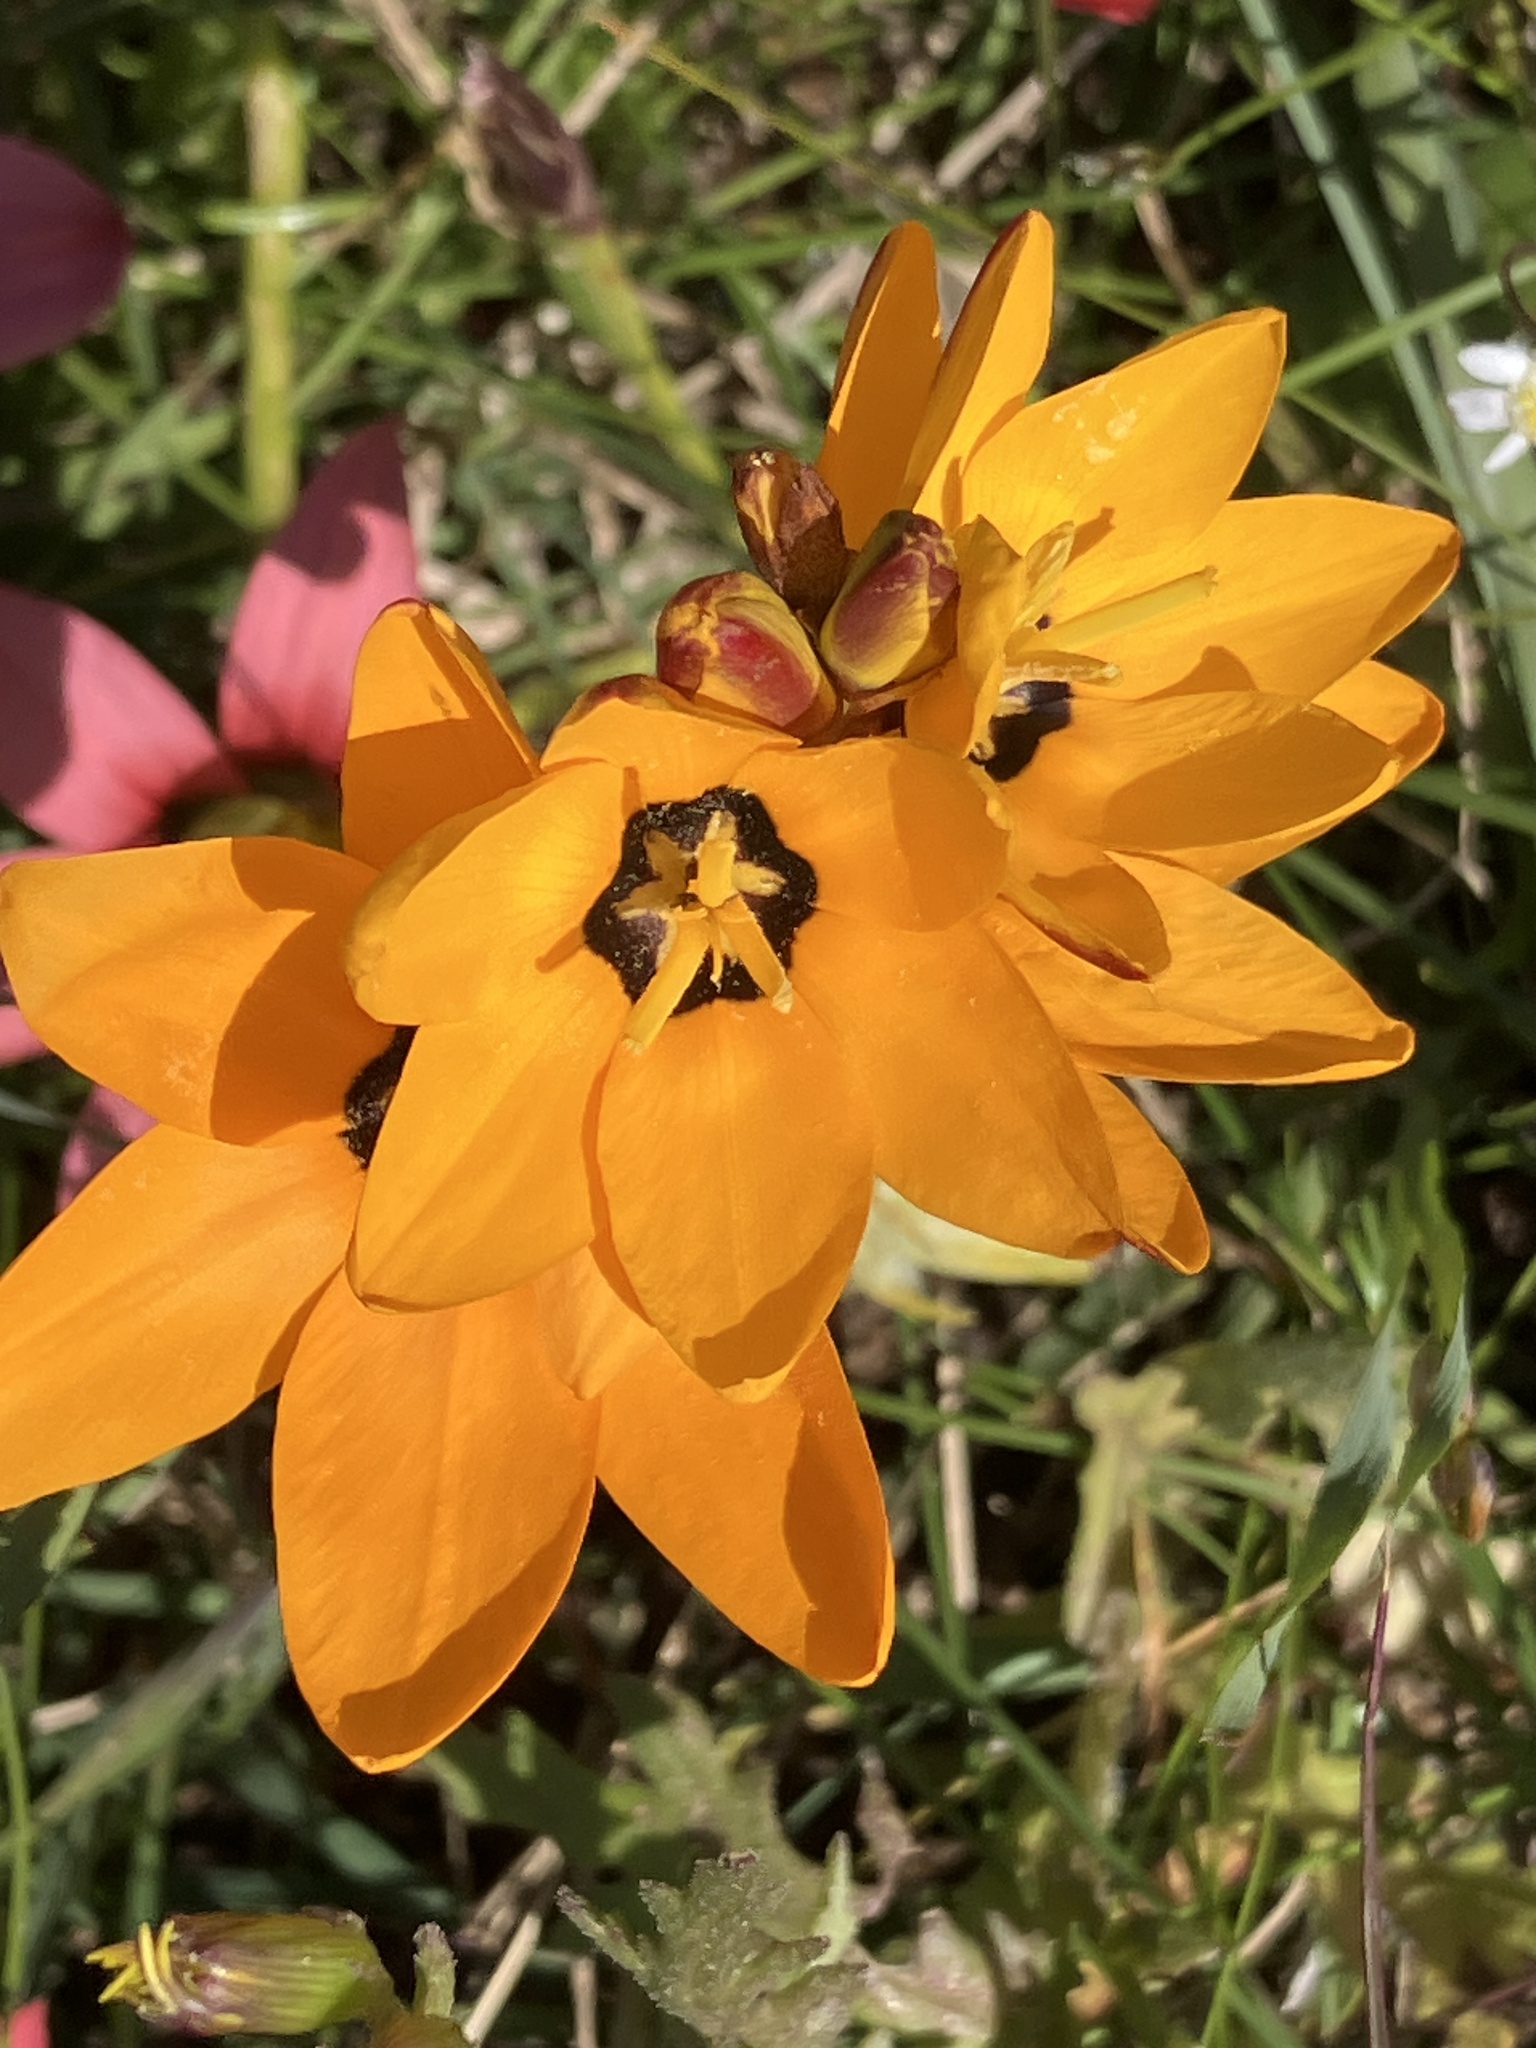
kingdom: Plantae
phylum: Tracheophyta
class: Liliopsida
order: Asparagales
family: Iridaceae
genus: Ixia
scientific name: Ixia maculata
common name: Spotted african cornlily
